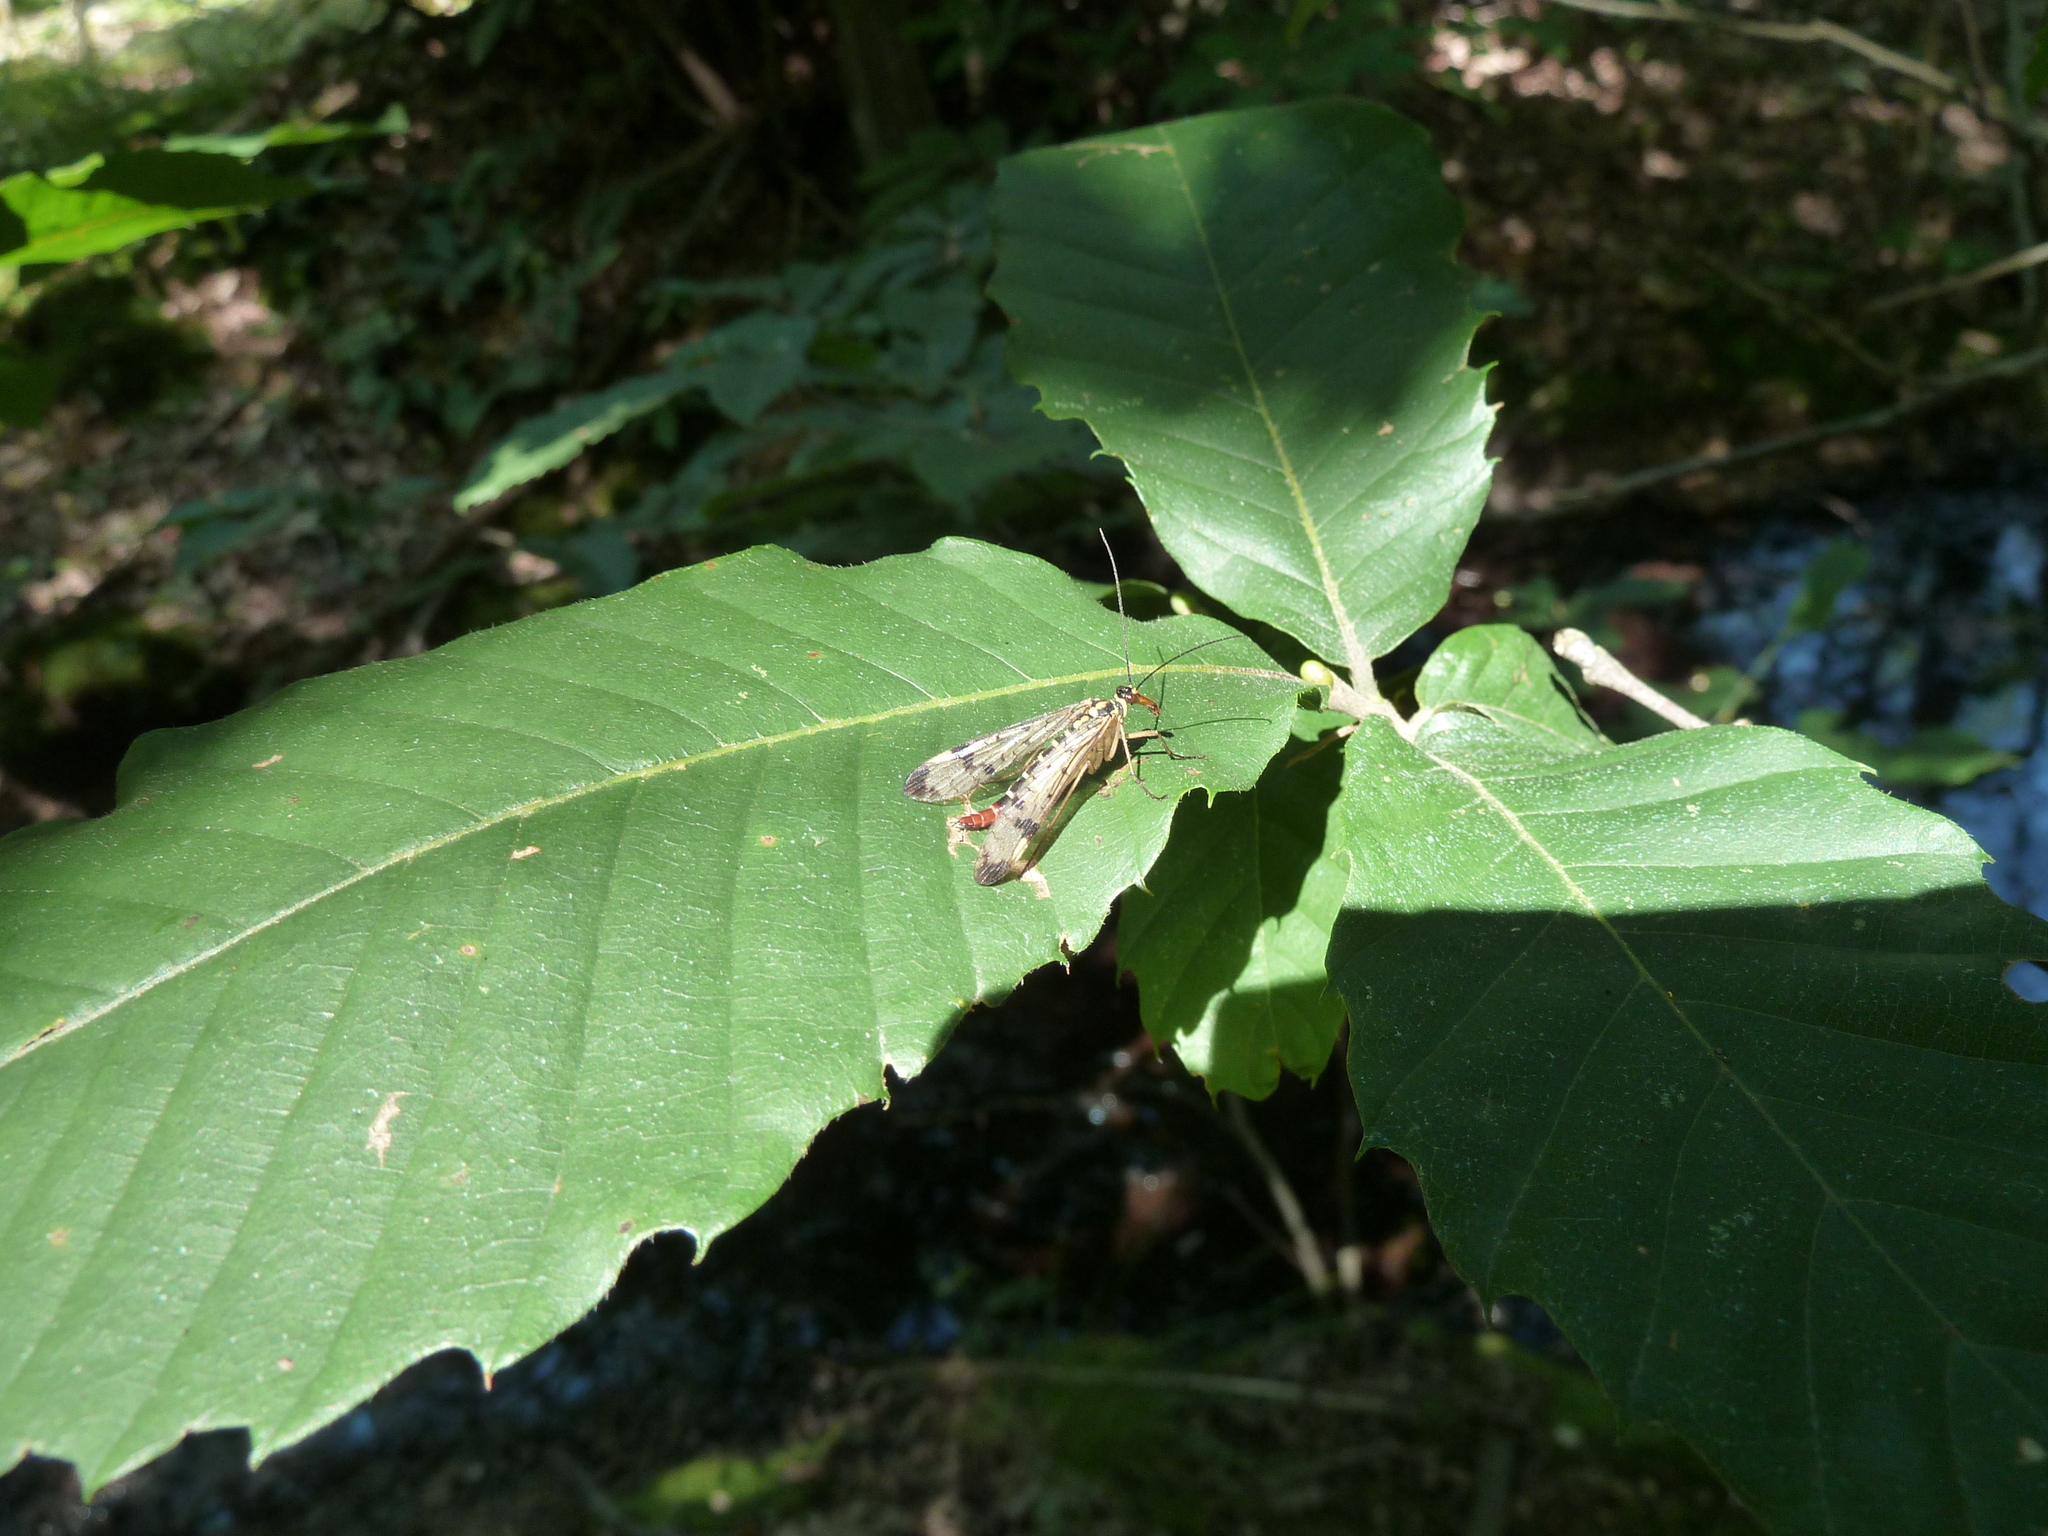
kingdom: Animalia
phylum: Arthropoda
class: Insecta
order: Mecoptera
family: Panorpidae
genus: Panorpa
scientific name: Panorpa communis
